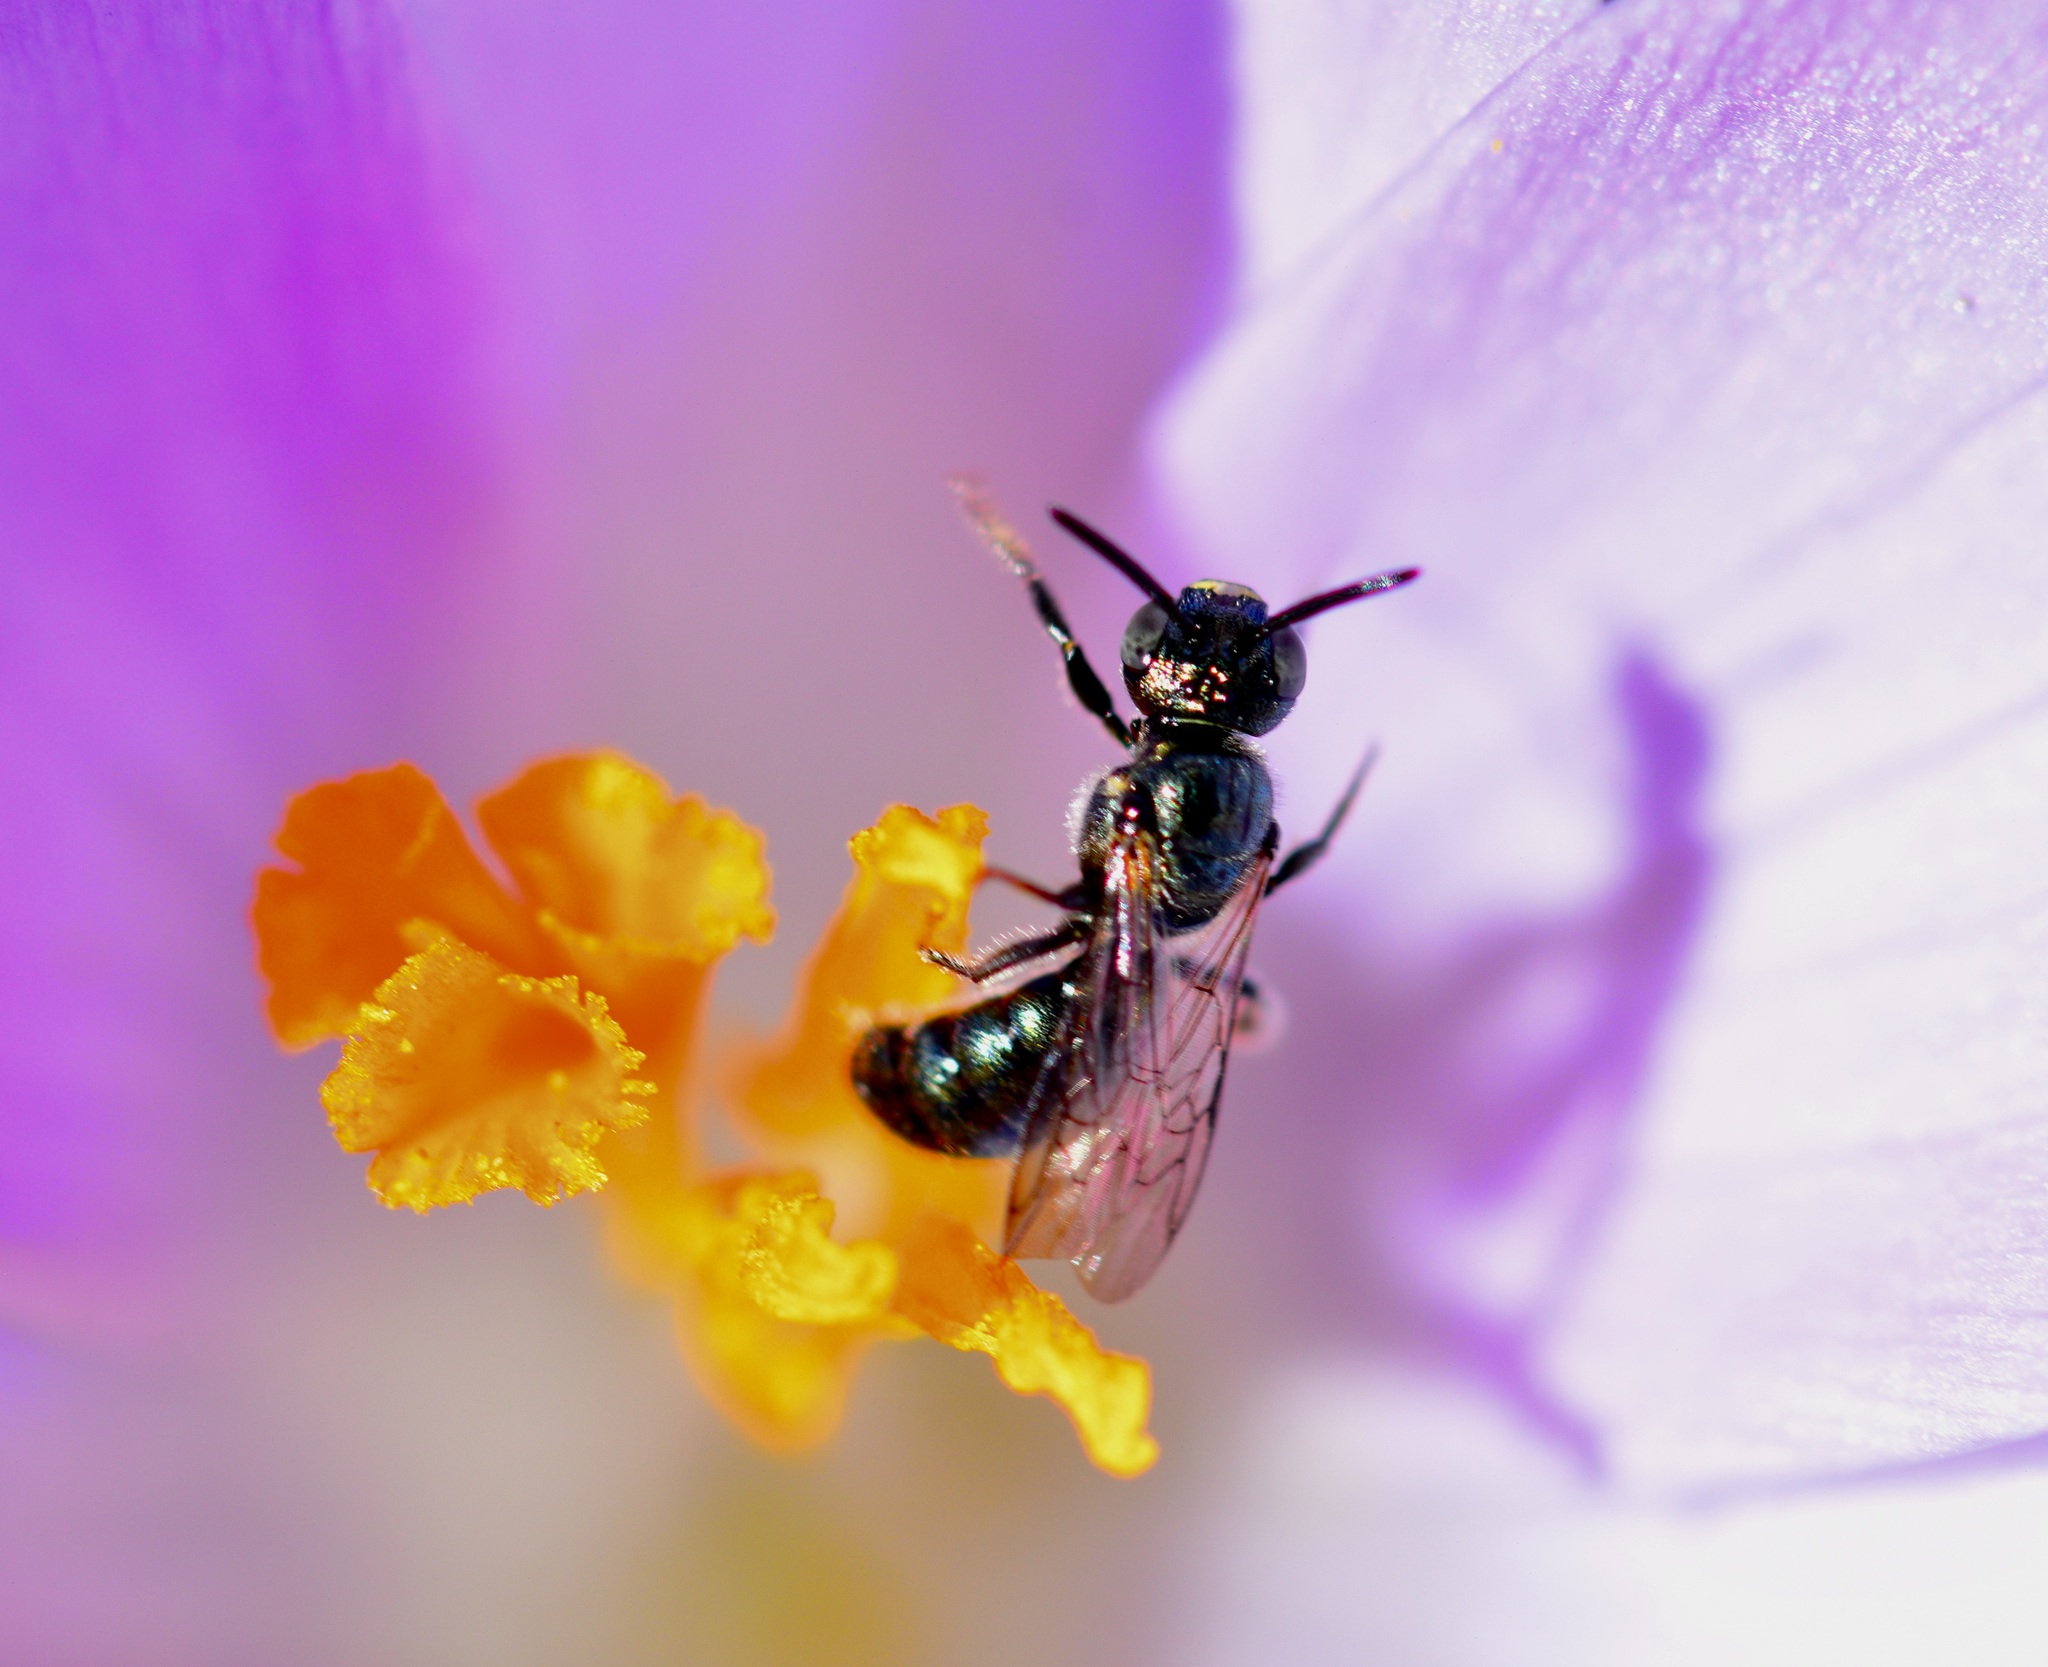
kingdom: Animalia
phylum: Arthropoda
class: Insecta
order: Hymenoptera
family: Apidae
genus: Ceratina
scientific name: Ceratina calcarata
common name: Spurred carpenter bee
